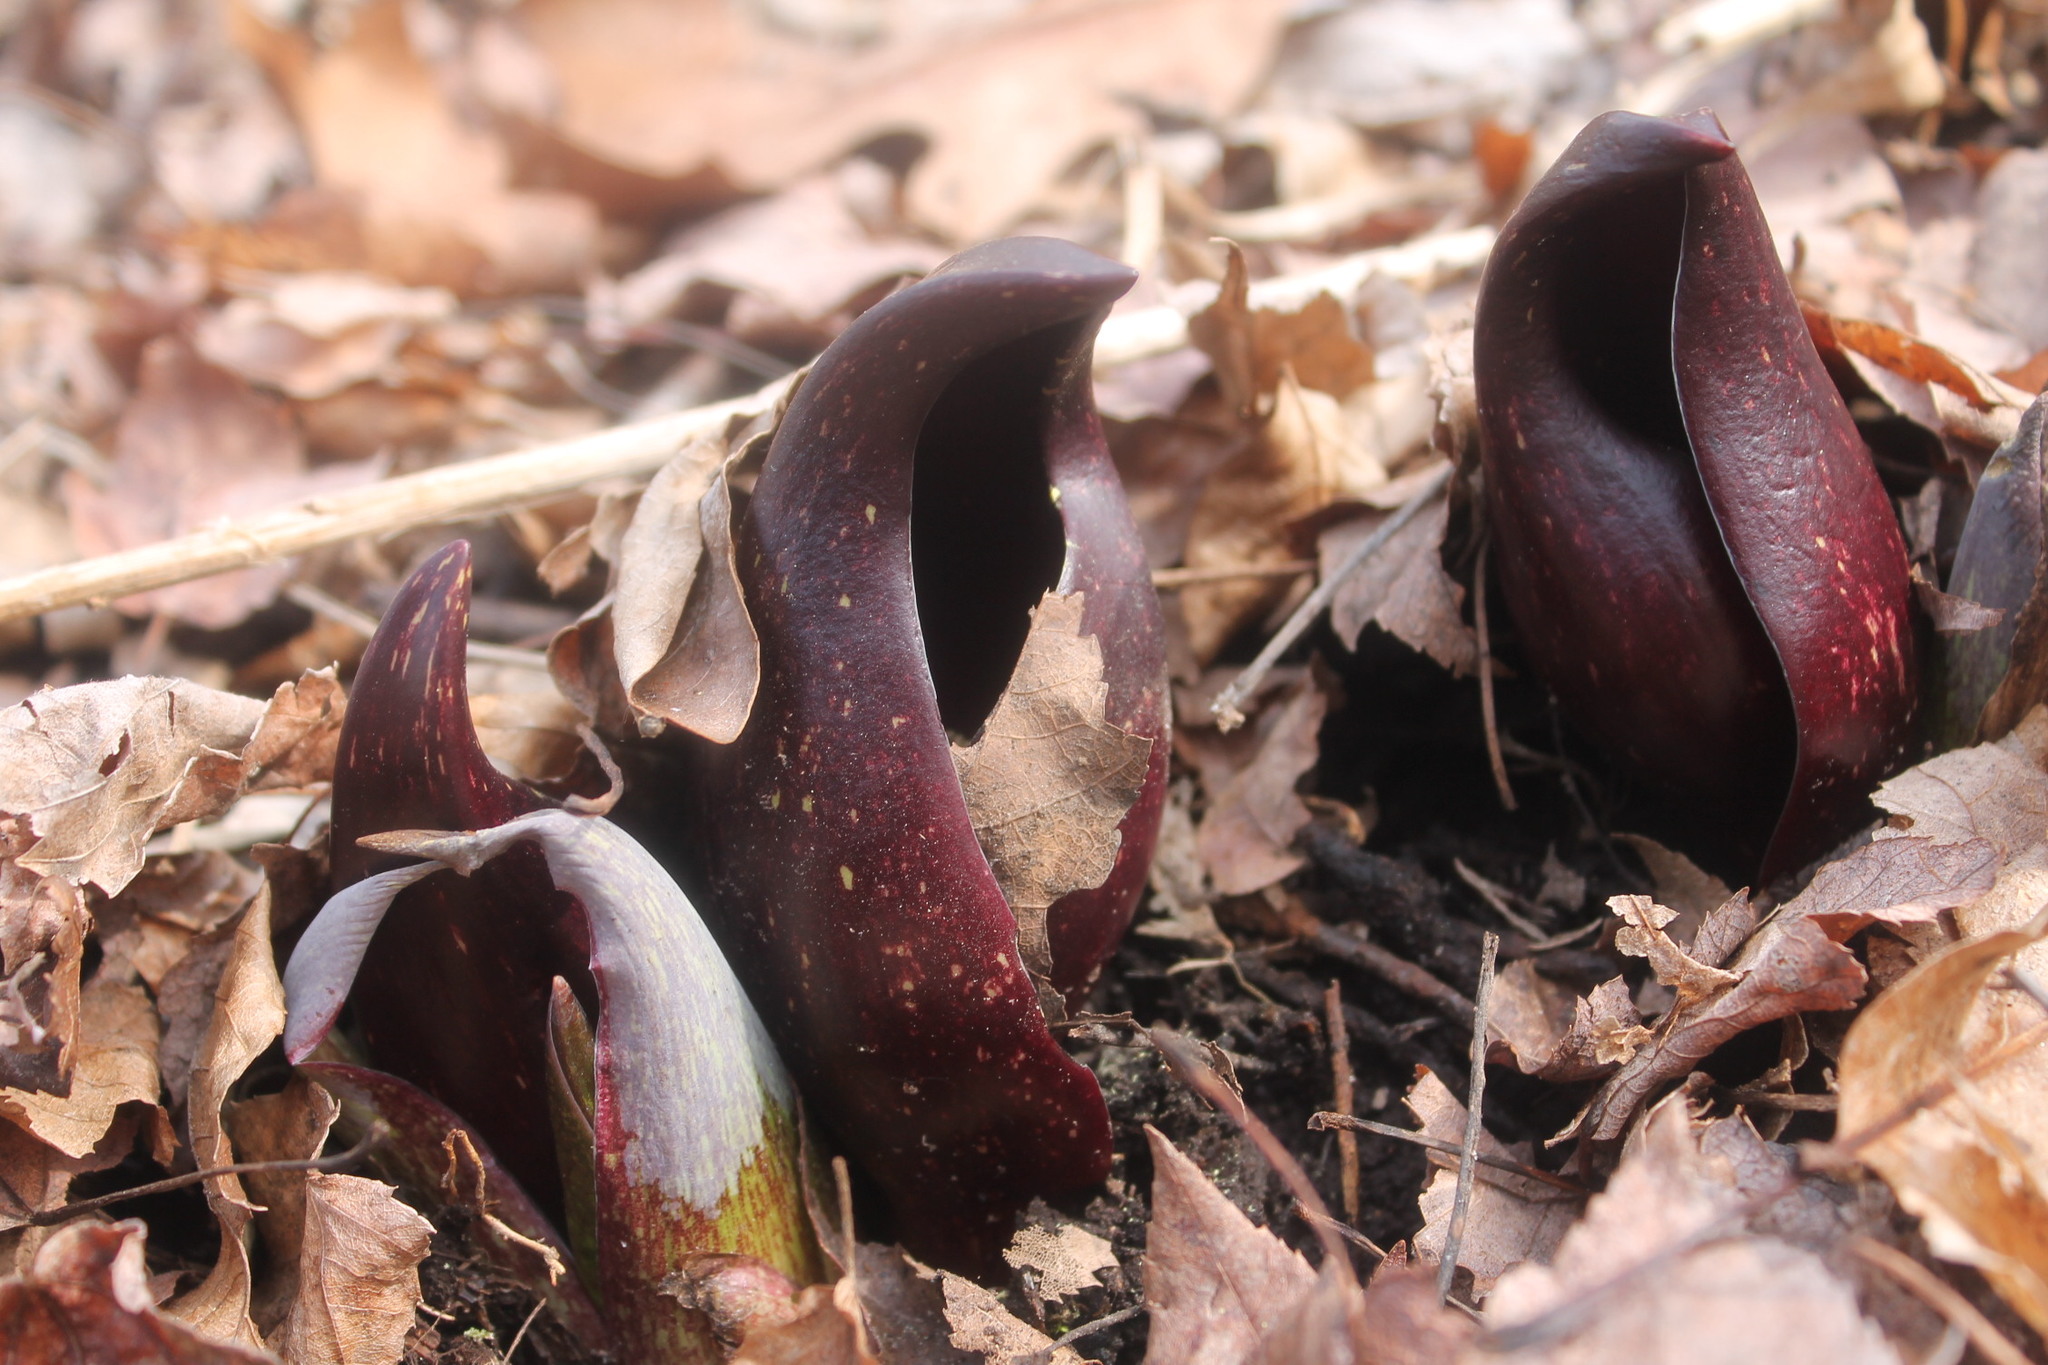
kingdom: Plantae
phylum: Tracheophyta
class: Liliopsida
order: Alismatales
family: Araceae
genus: Symplocarpus
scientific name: Symplocarpus foetidus
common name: Eastern skunk cabbage
